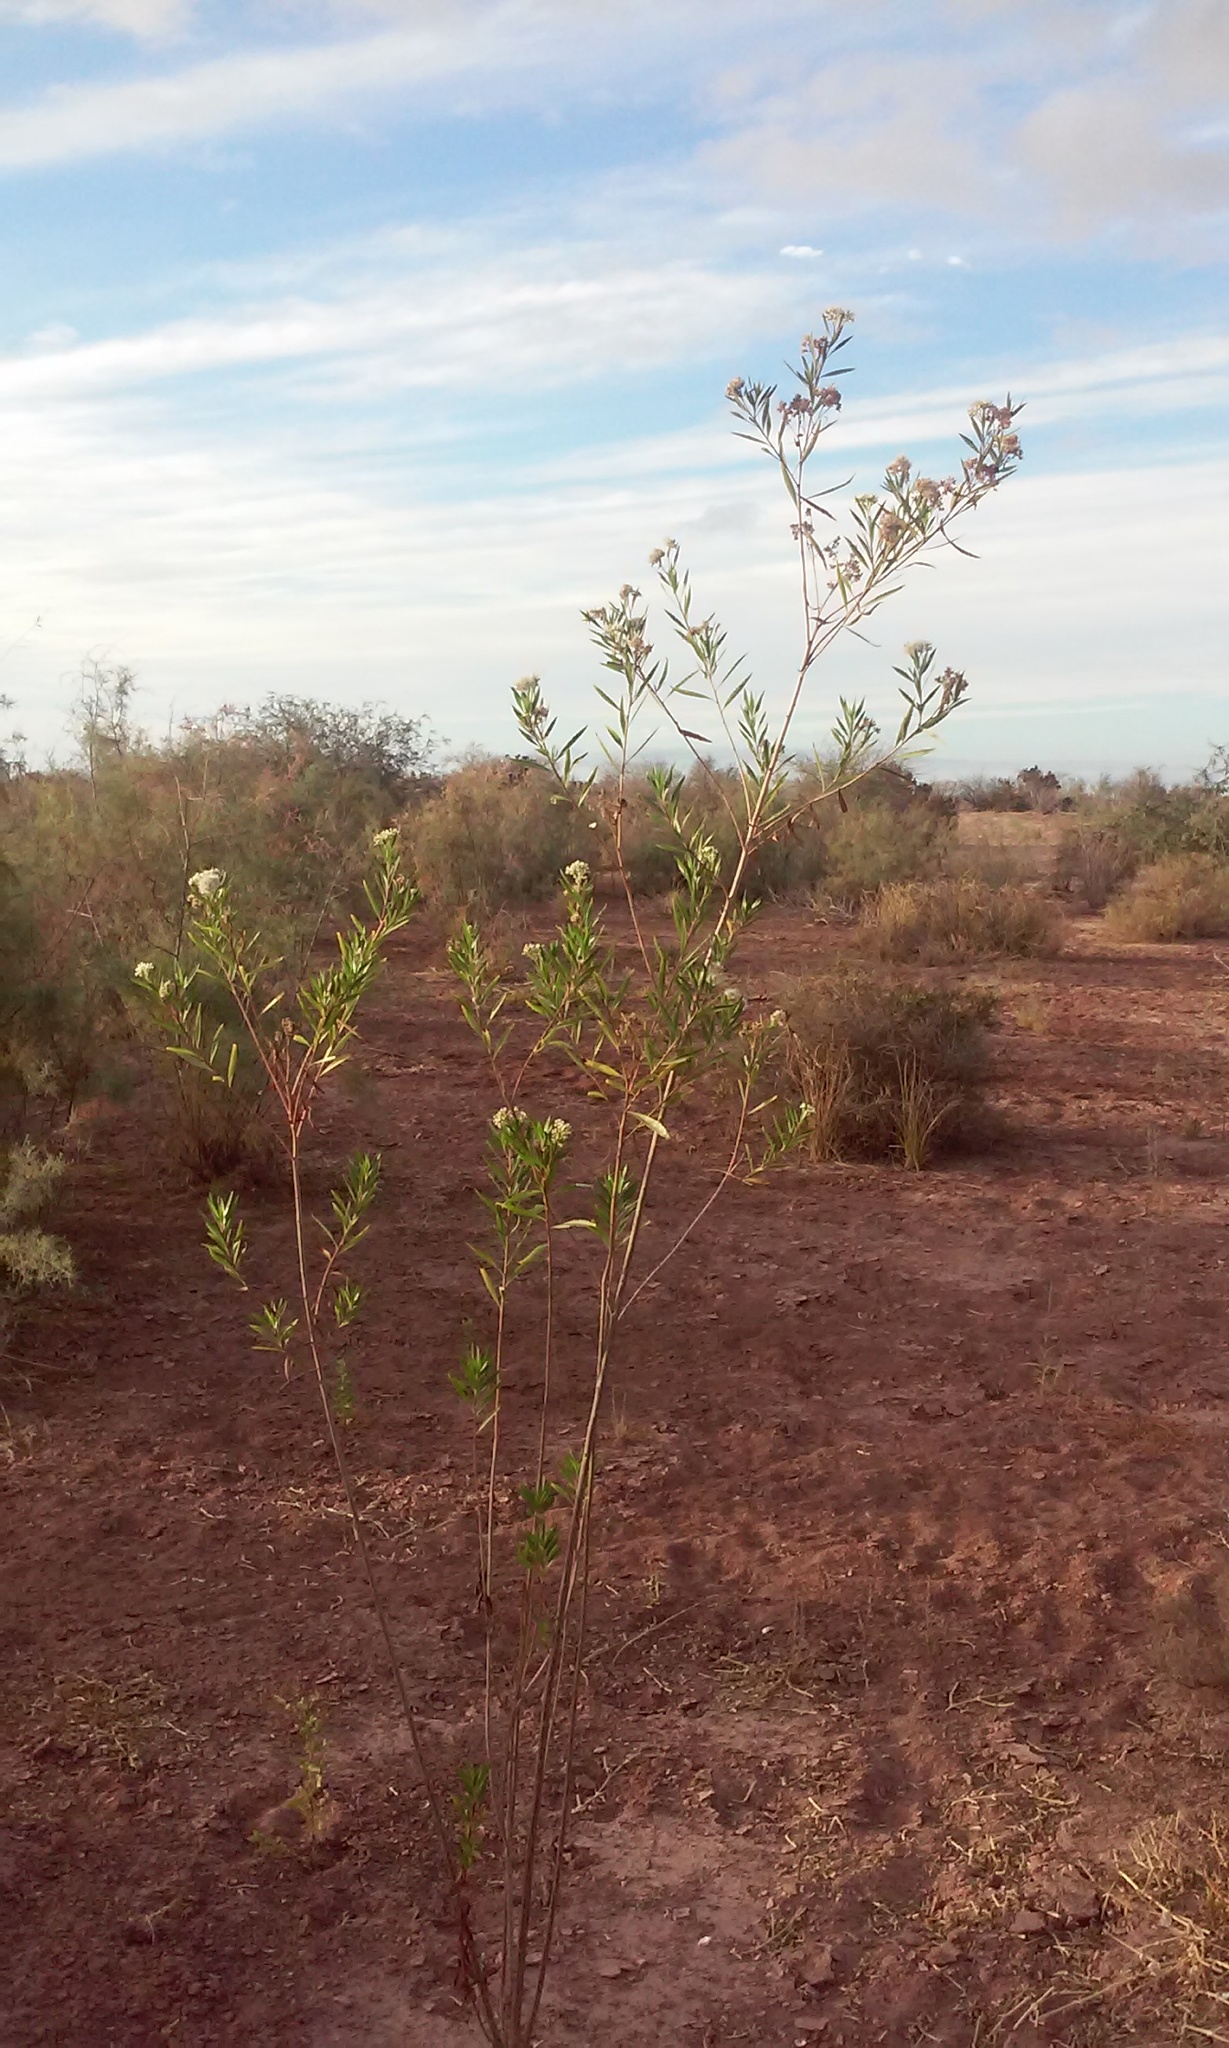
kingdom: Plantae
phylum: Tracheophyta
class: Magnoliopsida
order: Asterales
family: Asteraceae
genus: Baccharis
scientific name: Baccharis salicifolia
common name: Sticky baccharis
